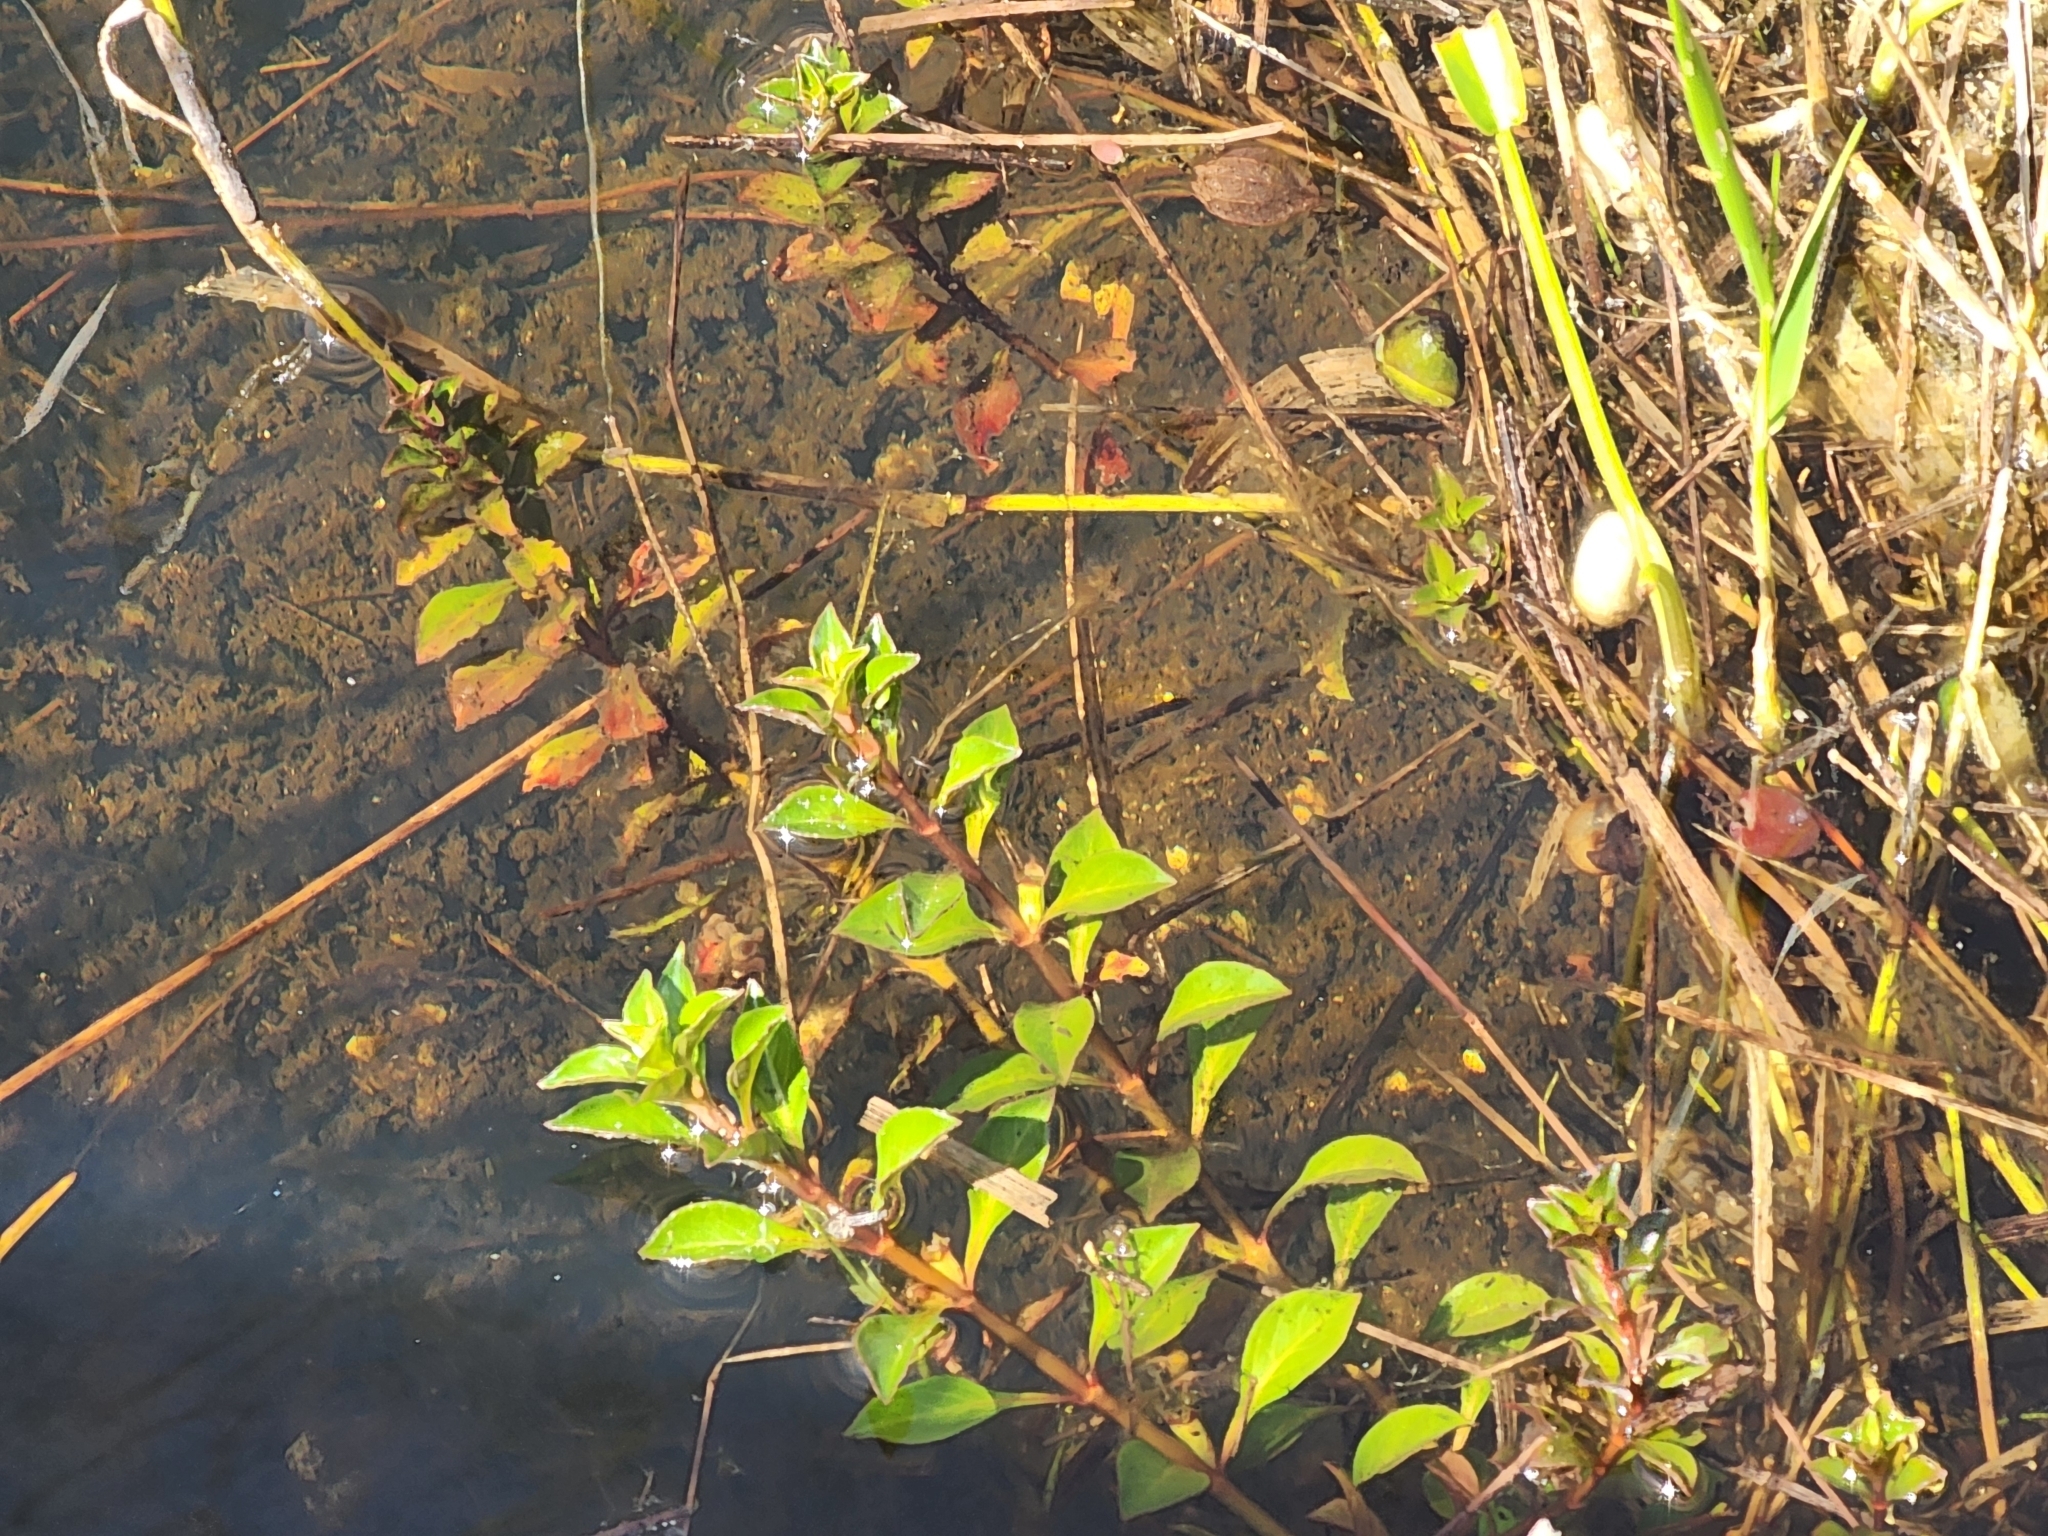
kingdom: Plantae
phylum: Tracheophyta
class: Magnoliopsida
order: Myrtales
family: Onagraceae
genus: Ludwigia
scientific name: Ludwigia repens
